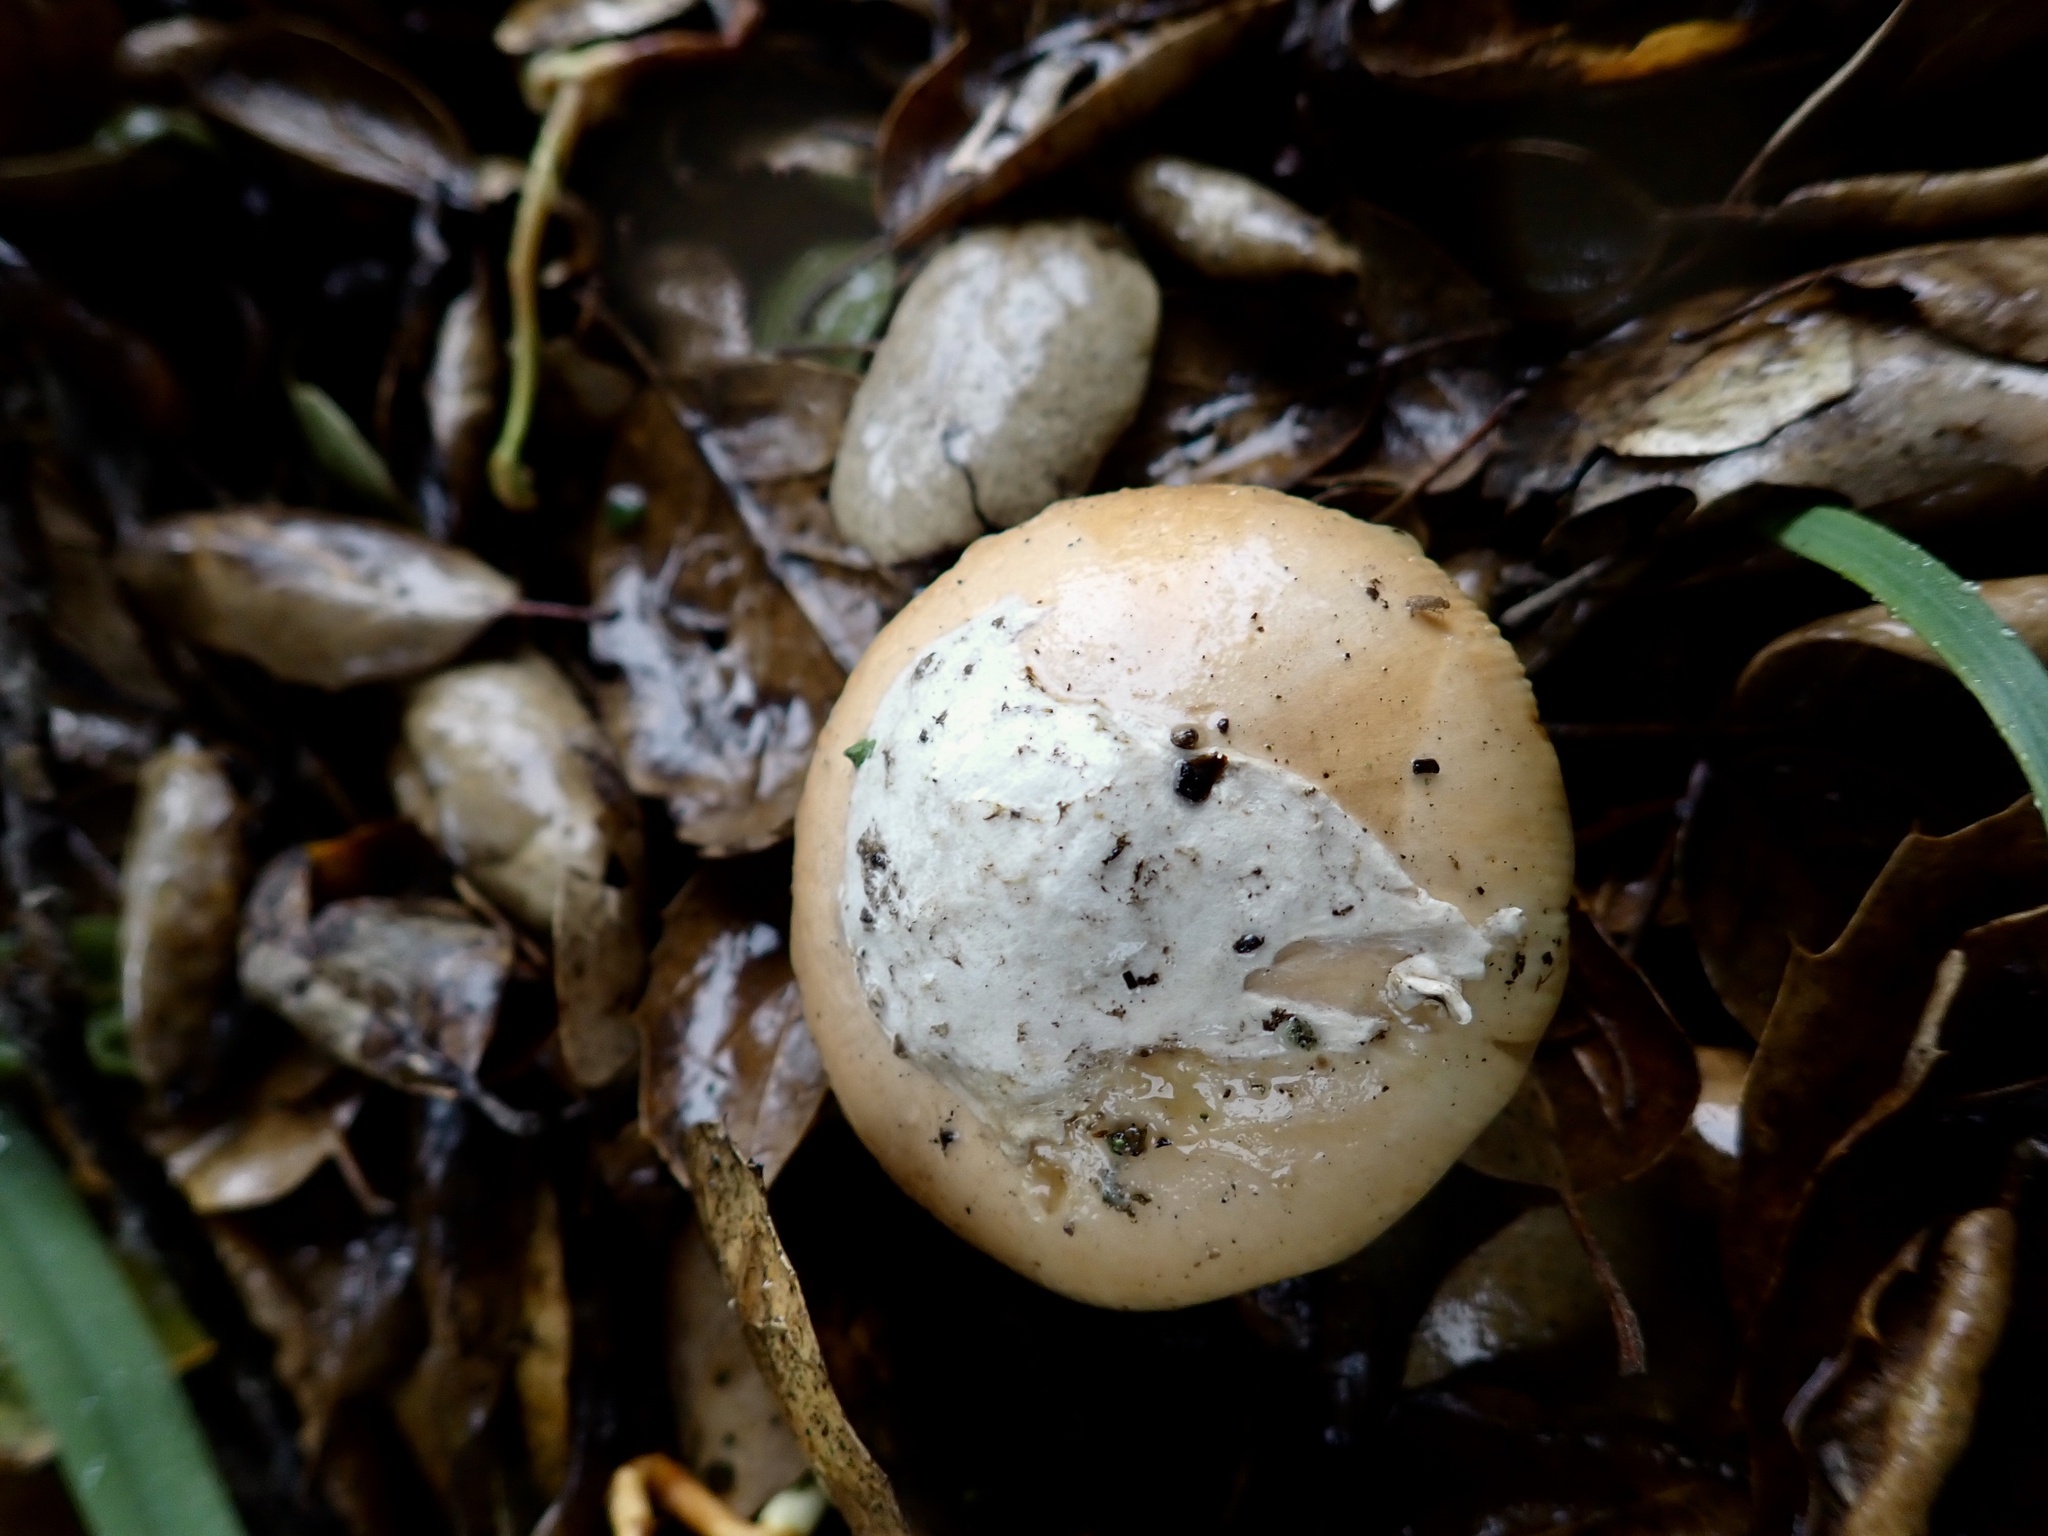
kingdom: Fungi
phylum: Basidiomycota
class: Agaricomycetes
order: Agaricales
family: Amanitaceae
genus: Amanita
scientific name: Amanita velosa
